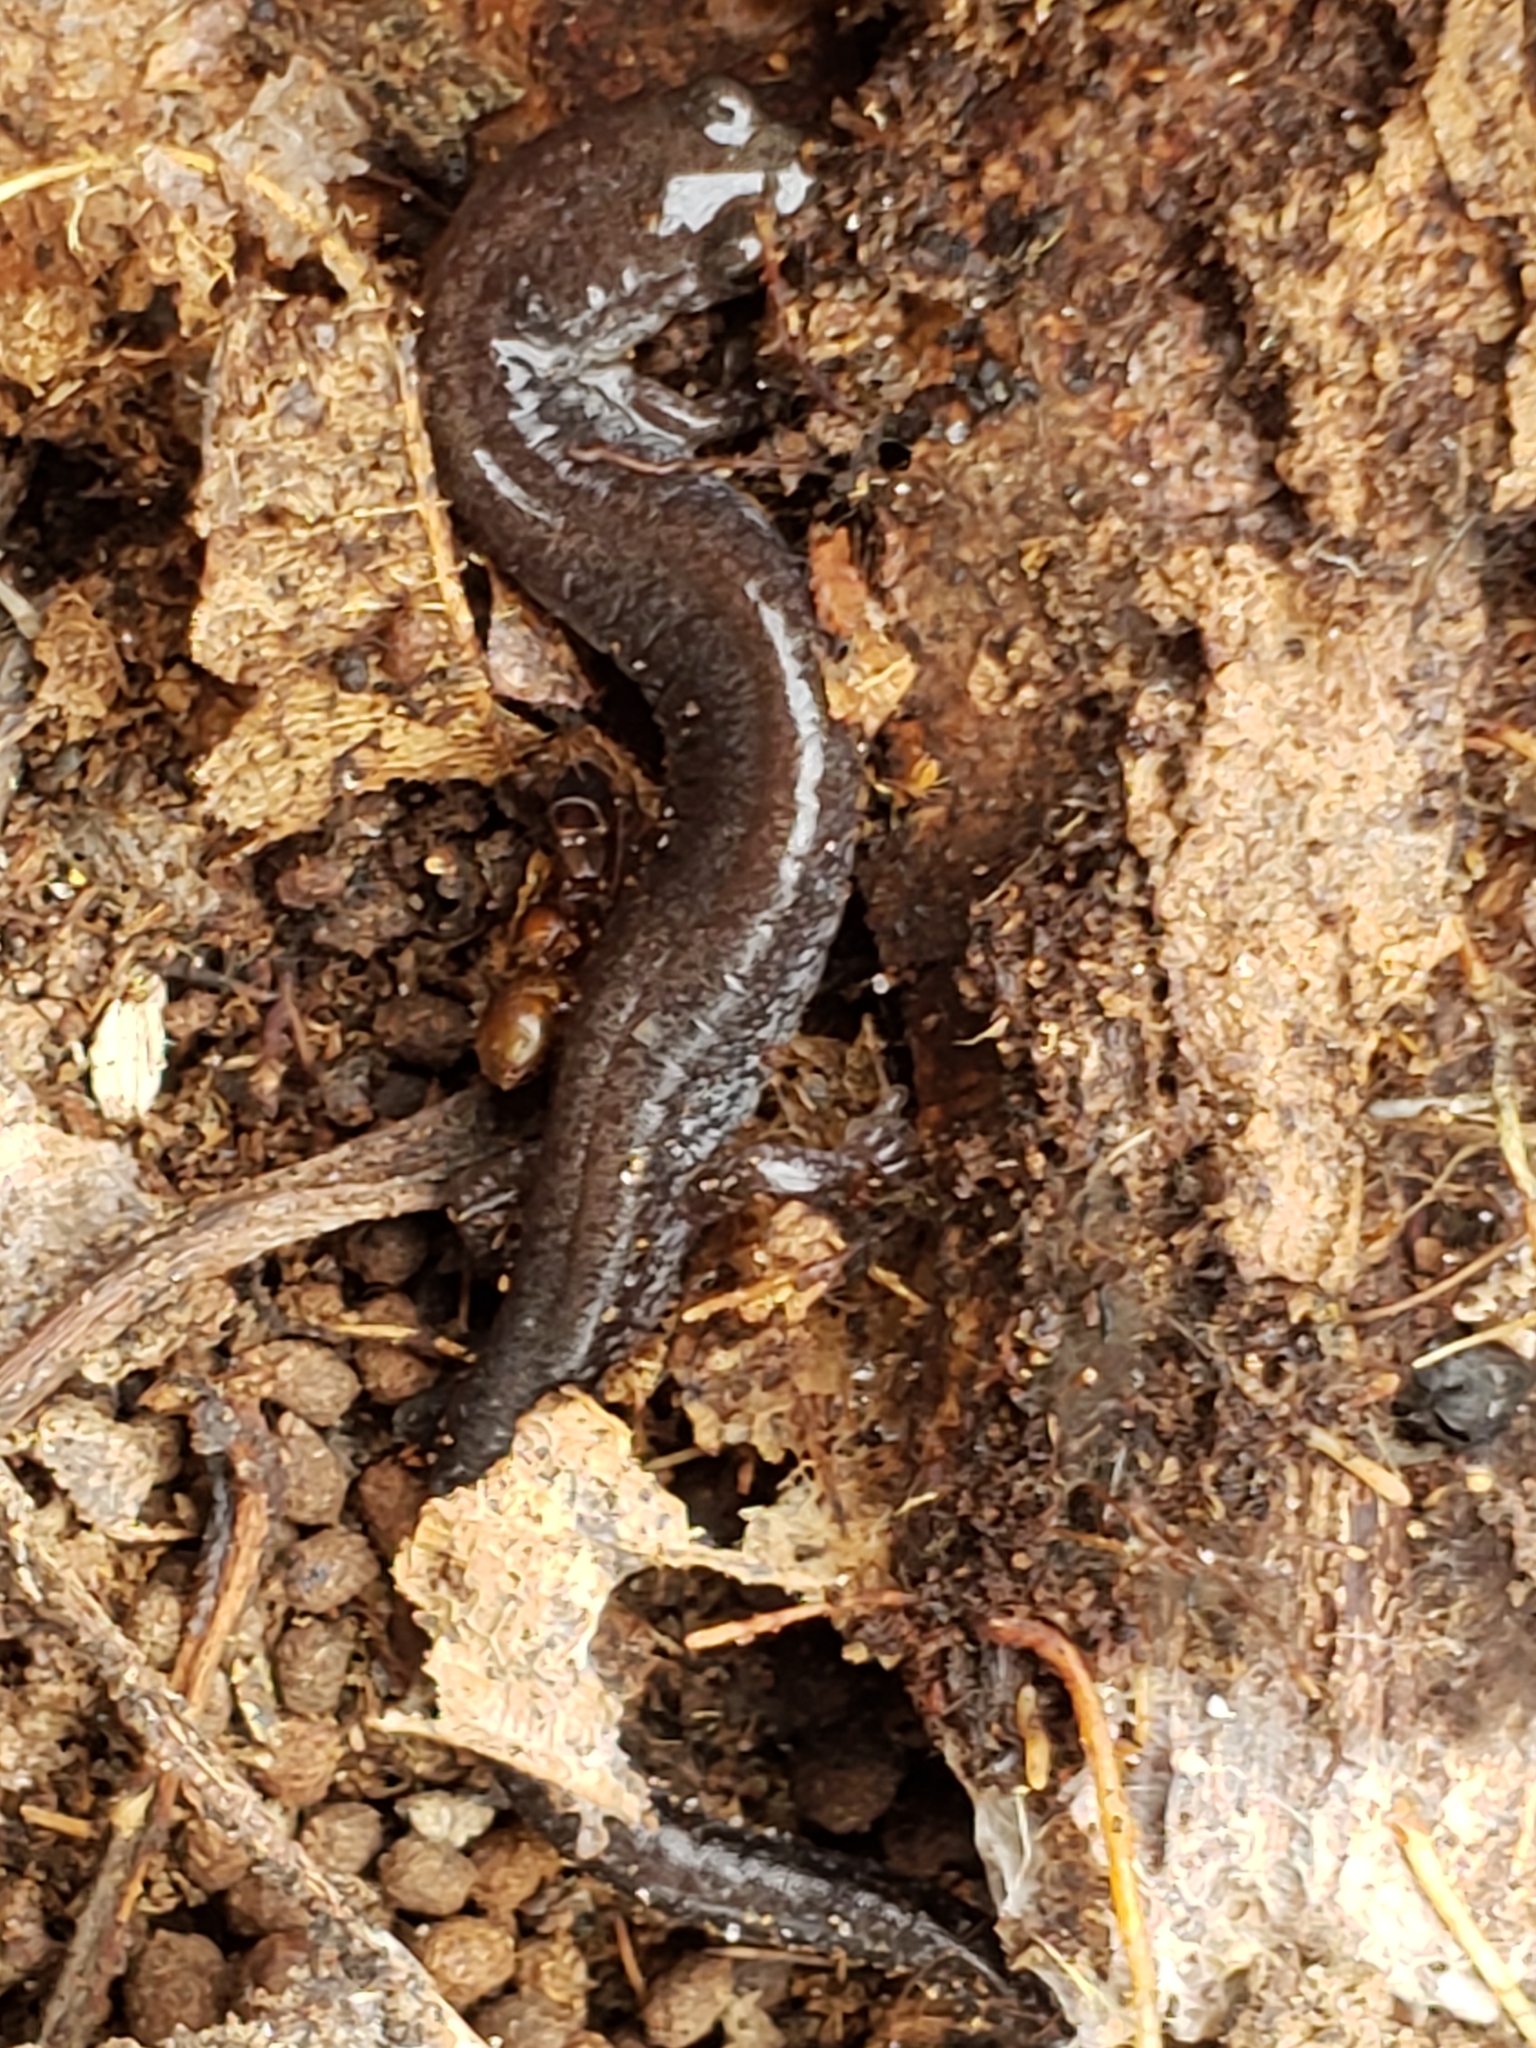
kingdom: Animalia
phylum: Chordata
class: Amphibia
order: Caudata
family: Plethodontidae
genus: Plethodon
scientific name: Plethodon cinereus
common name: Redback salamander
